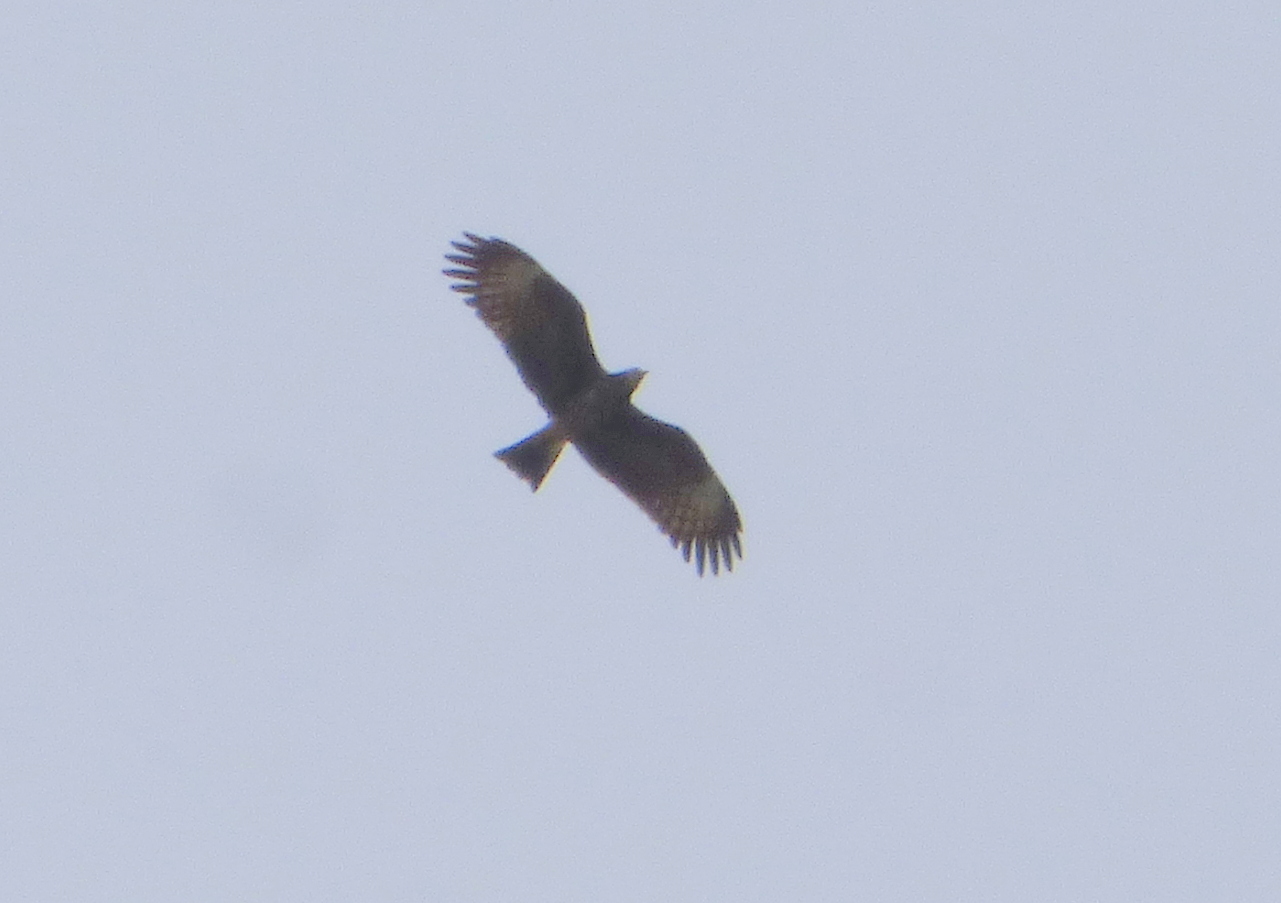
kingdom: Animalia
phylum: Chordata
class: Aves
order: Accipitriformes
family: Accipitridae
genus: Rostrhamus
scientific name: Rostrhamus sociabilis
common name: Snail kite
